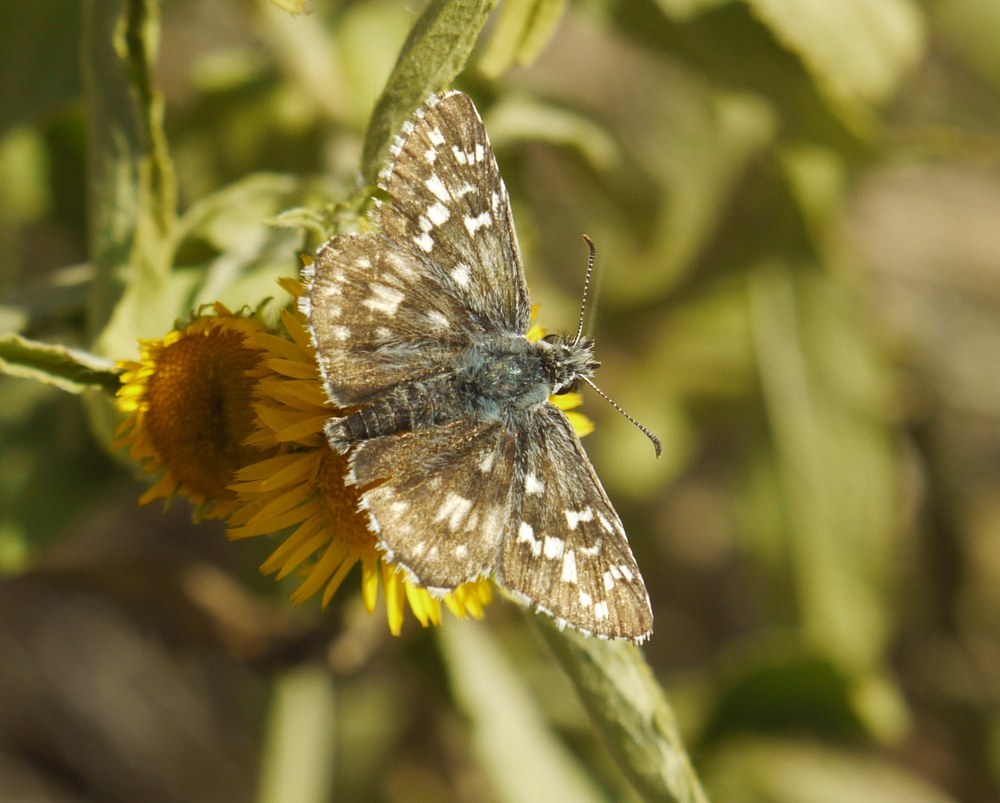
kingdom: Animalia
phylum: Arthropoda
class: Insecta
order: Lepidoptera
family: Hesperiidae
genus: Pyrgus
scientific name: Pyrgus armoricanus
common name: Oberthür's grizzled skipper
